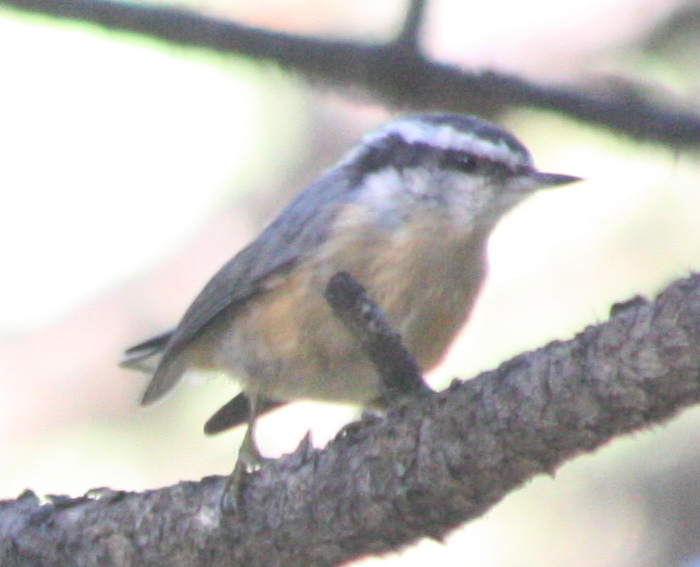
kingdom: Animalia
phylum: Chordata
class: Aves
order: Passeriformes
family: Sittidae
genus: Sitta
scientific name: Sitta canadensis
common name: Red-breasted nuthatch
